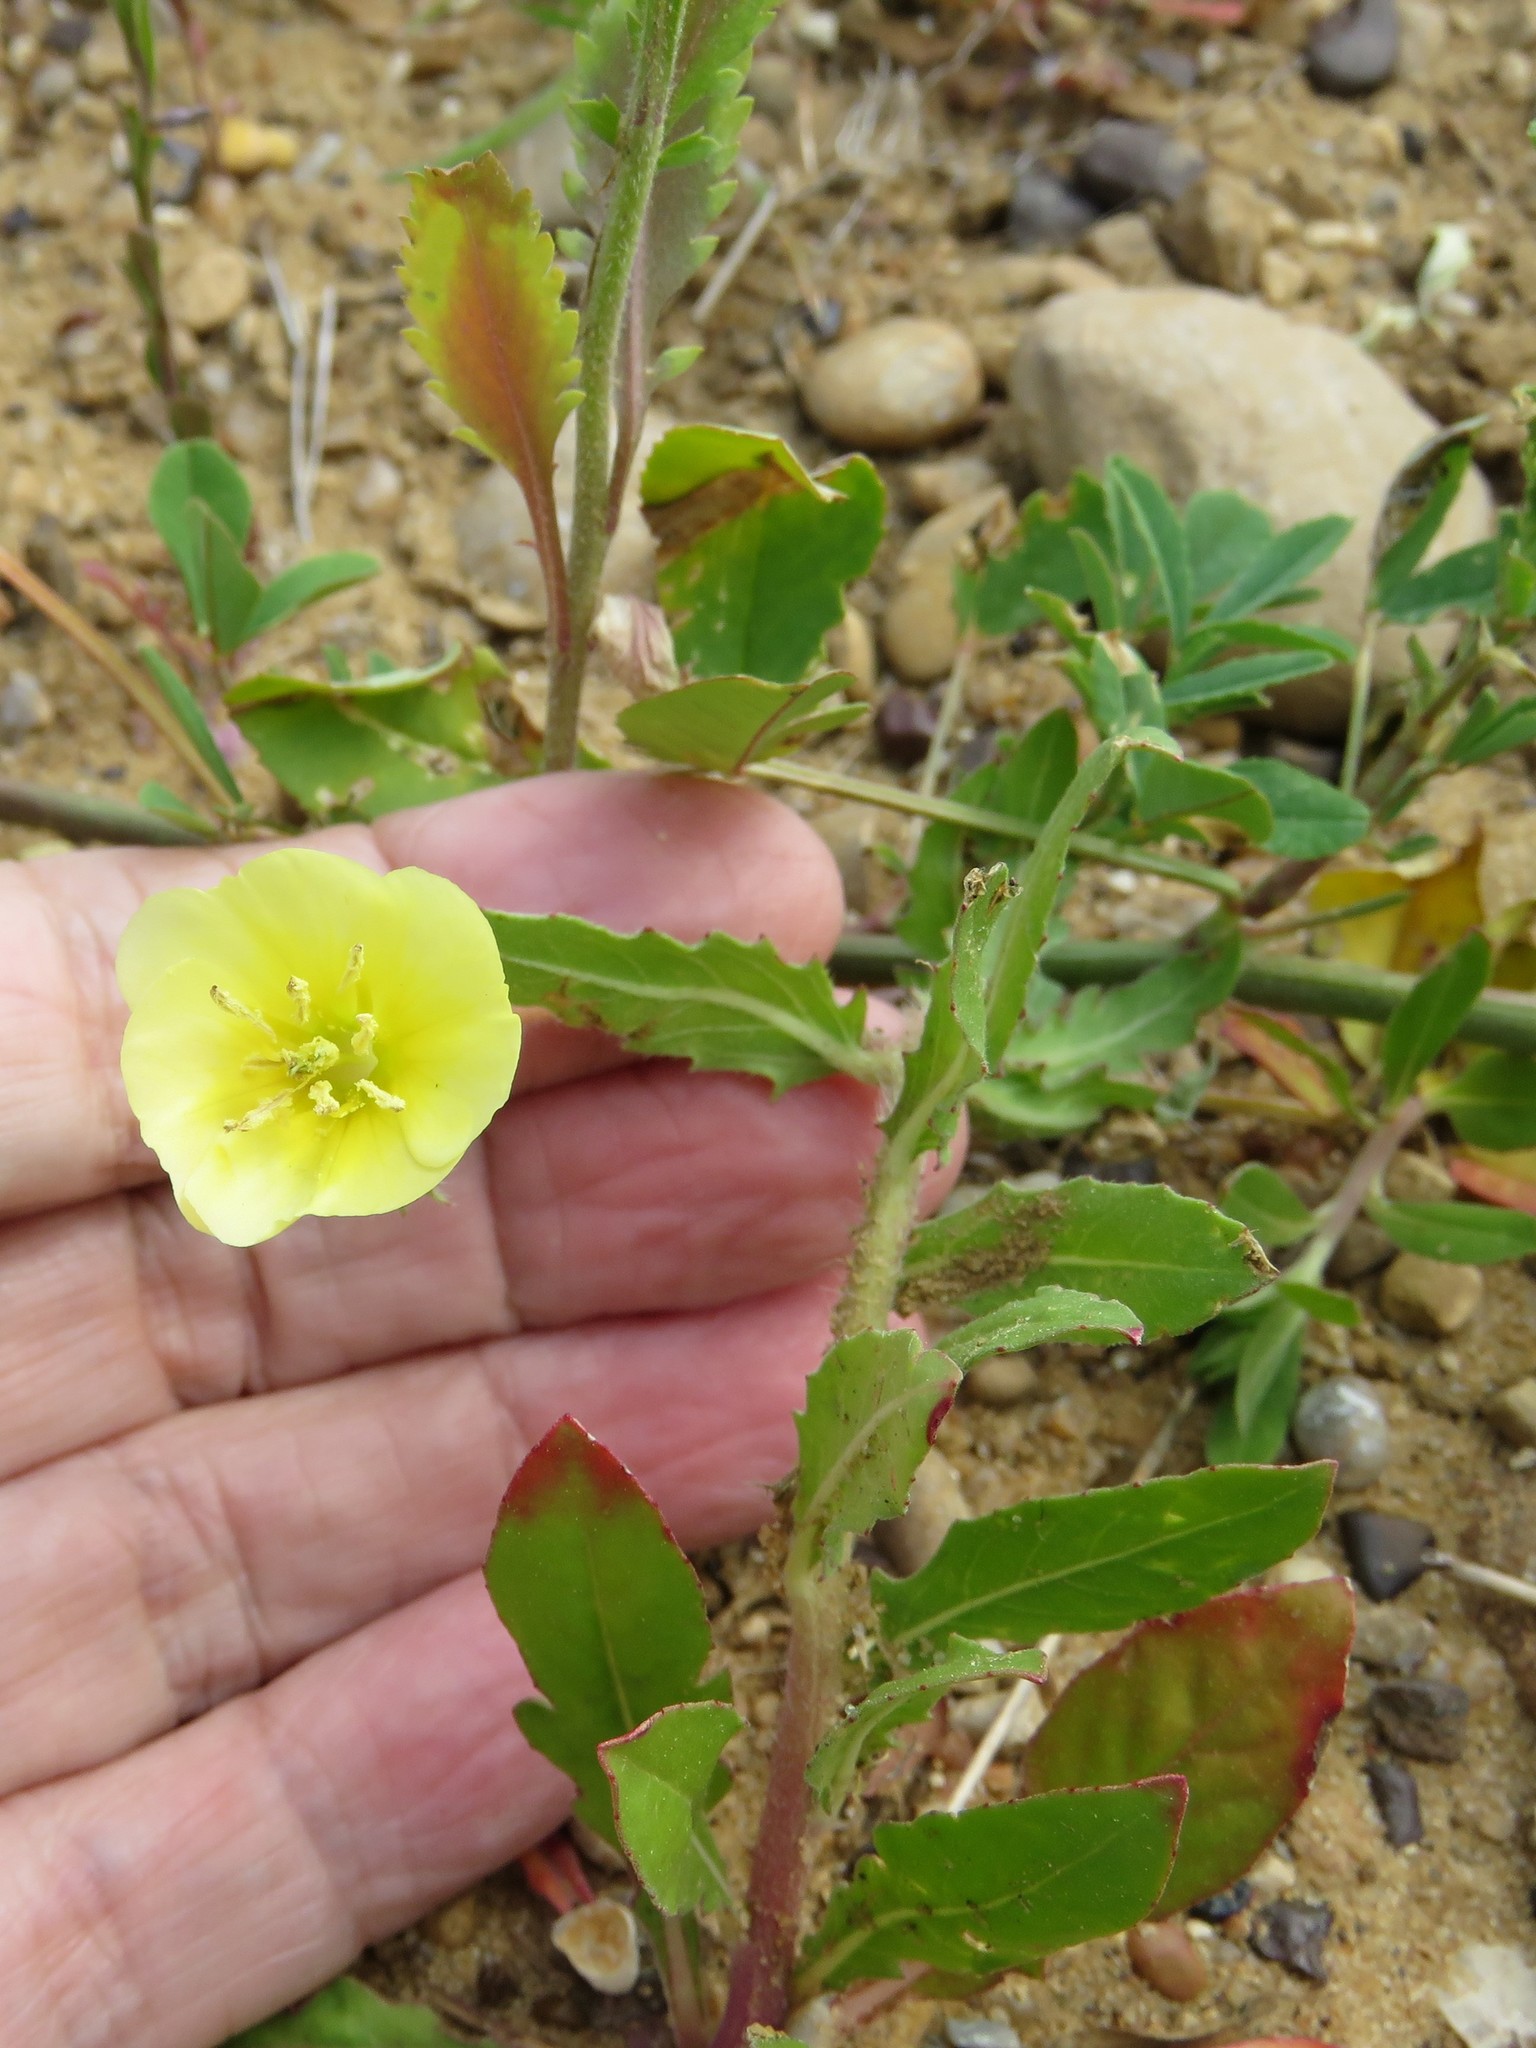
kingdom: Plantae
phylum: Tracheophyta
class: Magnoliopsida
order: Myrtales
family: Onagraceae
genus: Oenothera
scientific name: Oenothera laciniata
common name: Cut-leaved evening-primrose
